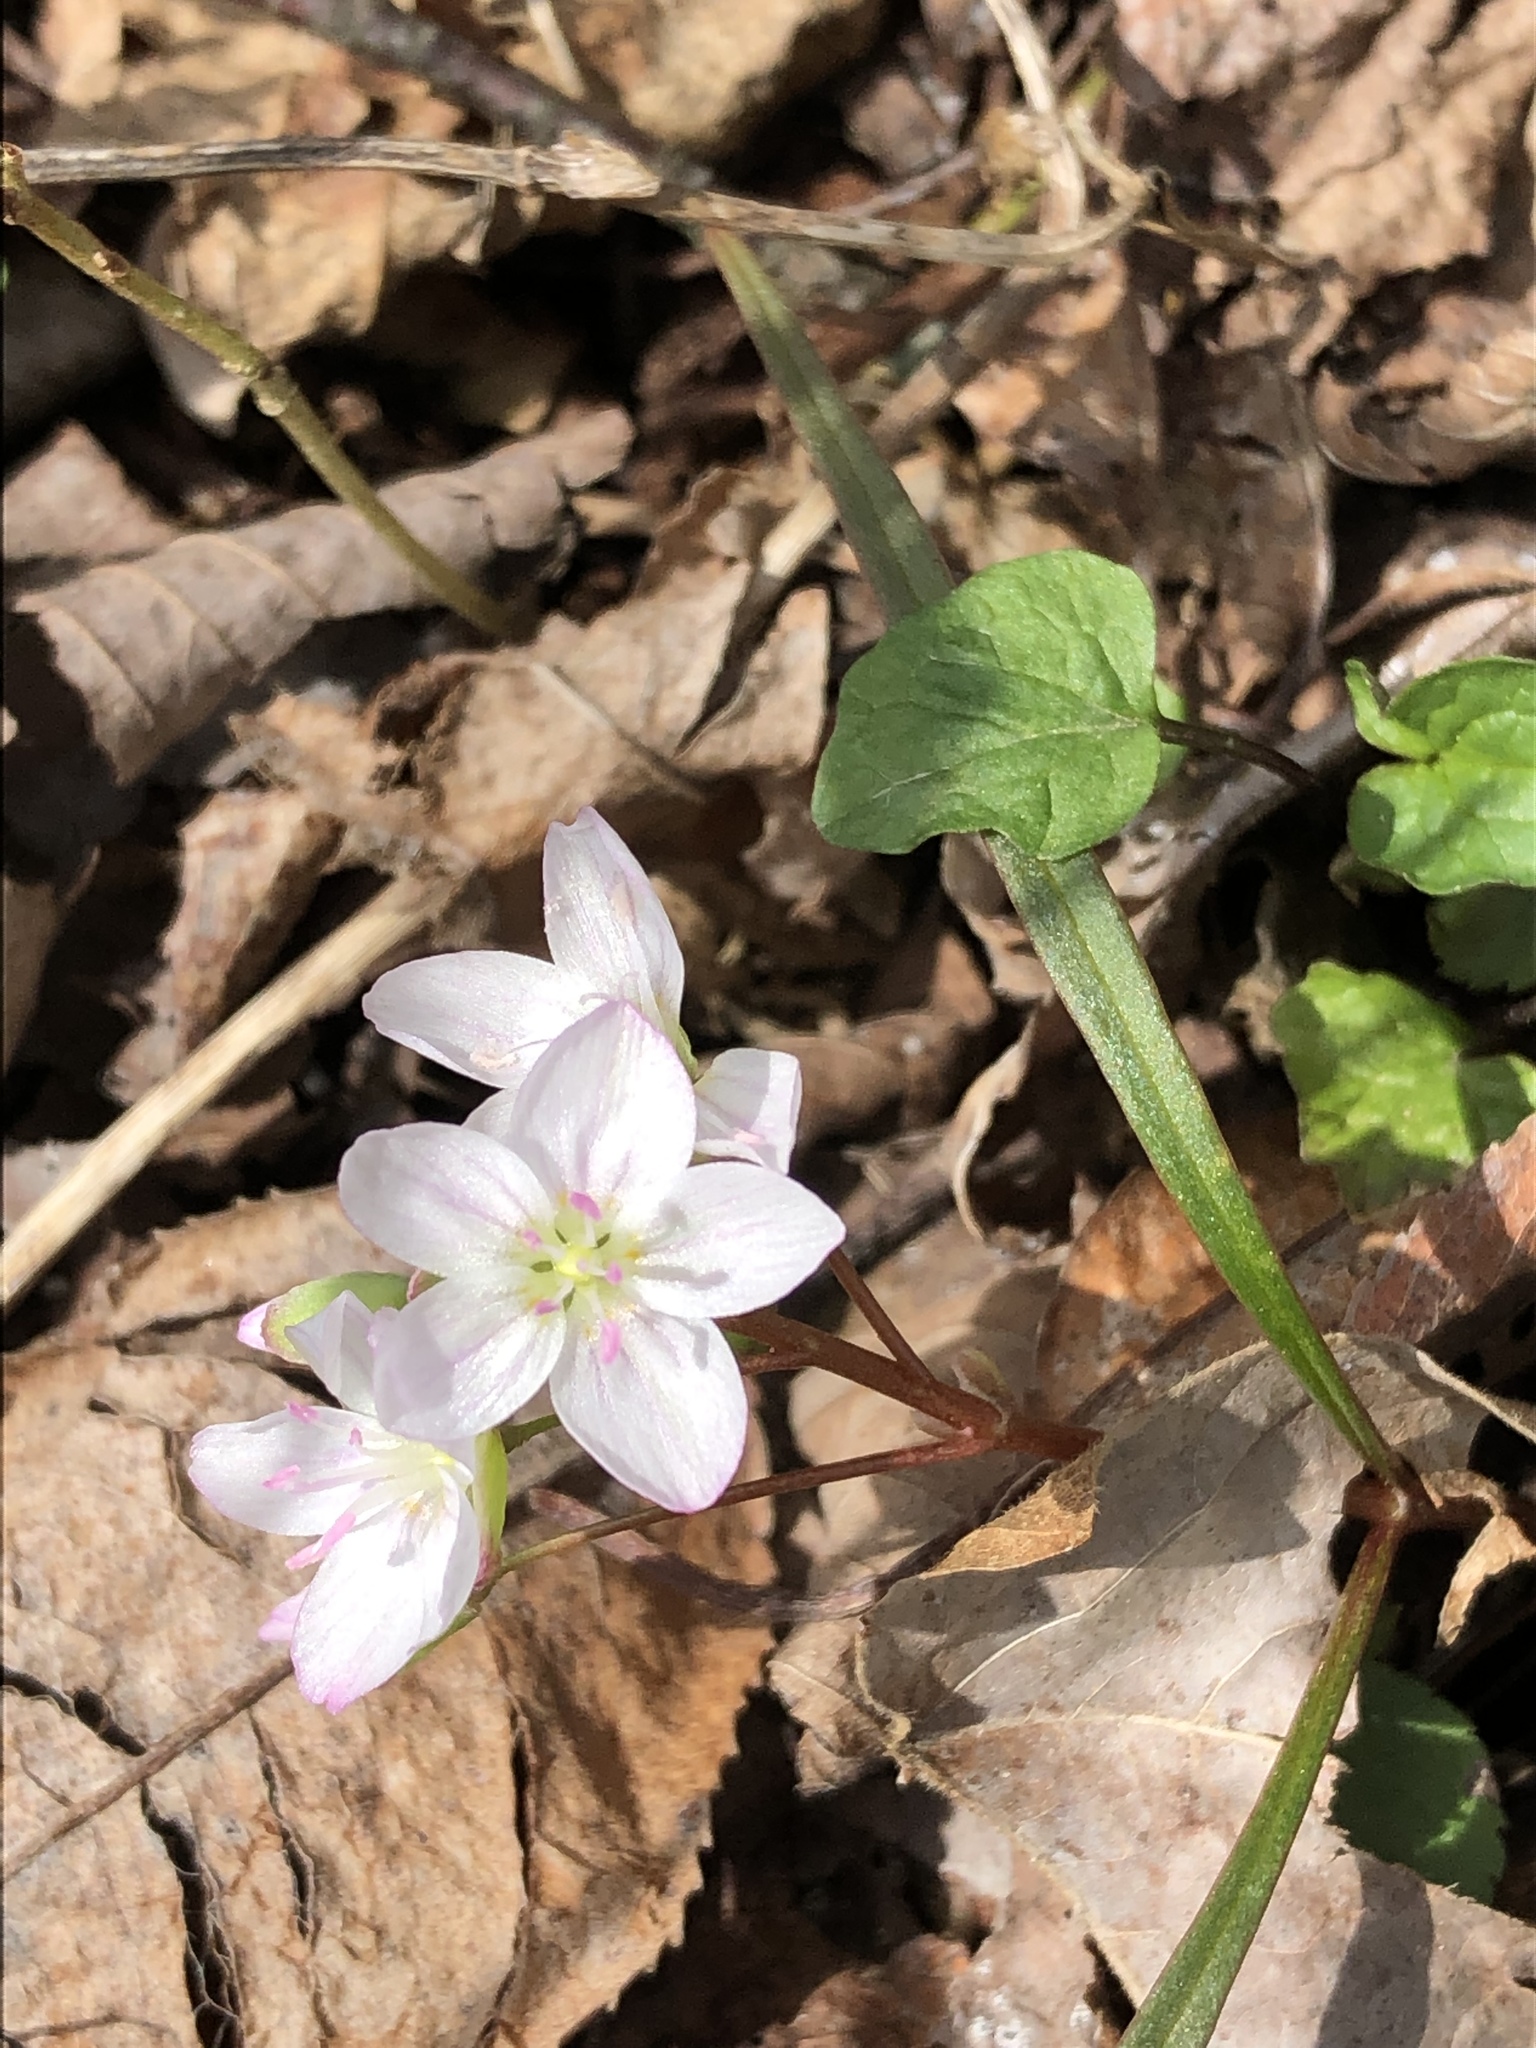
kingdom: Plantae
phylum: Tracheophyta
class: Magnoliopsida
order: Caryophyllales
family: Montiaceae
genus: Claytonia
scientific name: Claytonia virginica
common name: Virginia springbeauty
